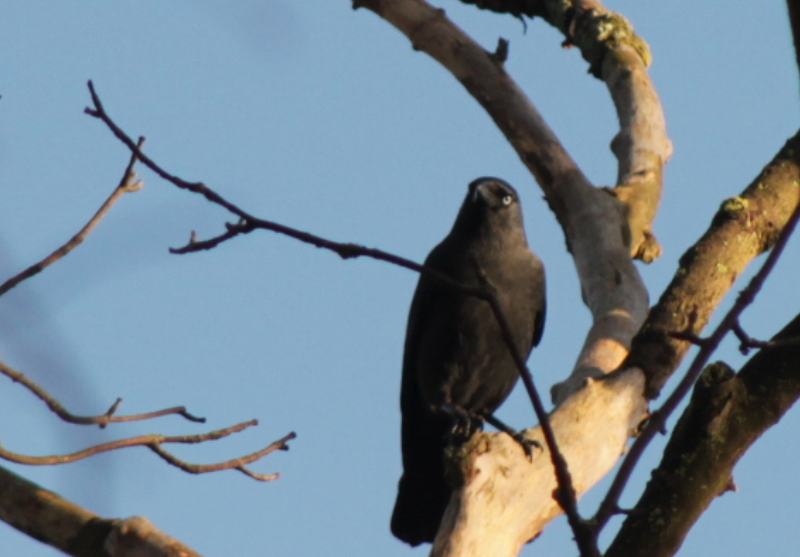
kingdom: Animalia
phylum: Chordata
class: Aves
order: Passeriformes
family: Corvidae
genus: Coloeus
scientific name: Coloeus monedula
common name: Western jackdaw
